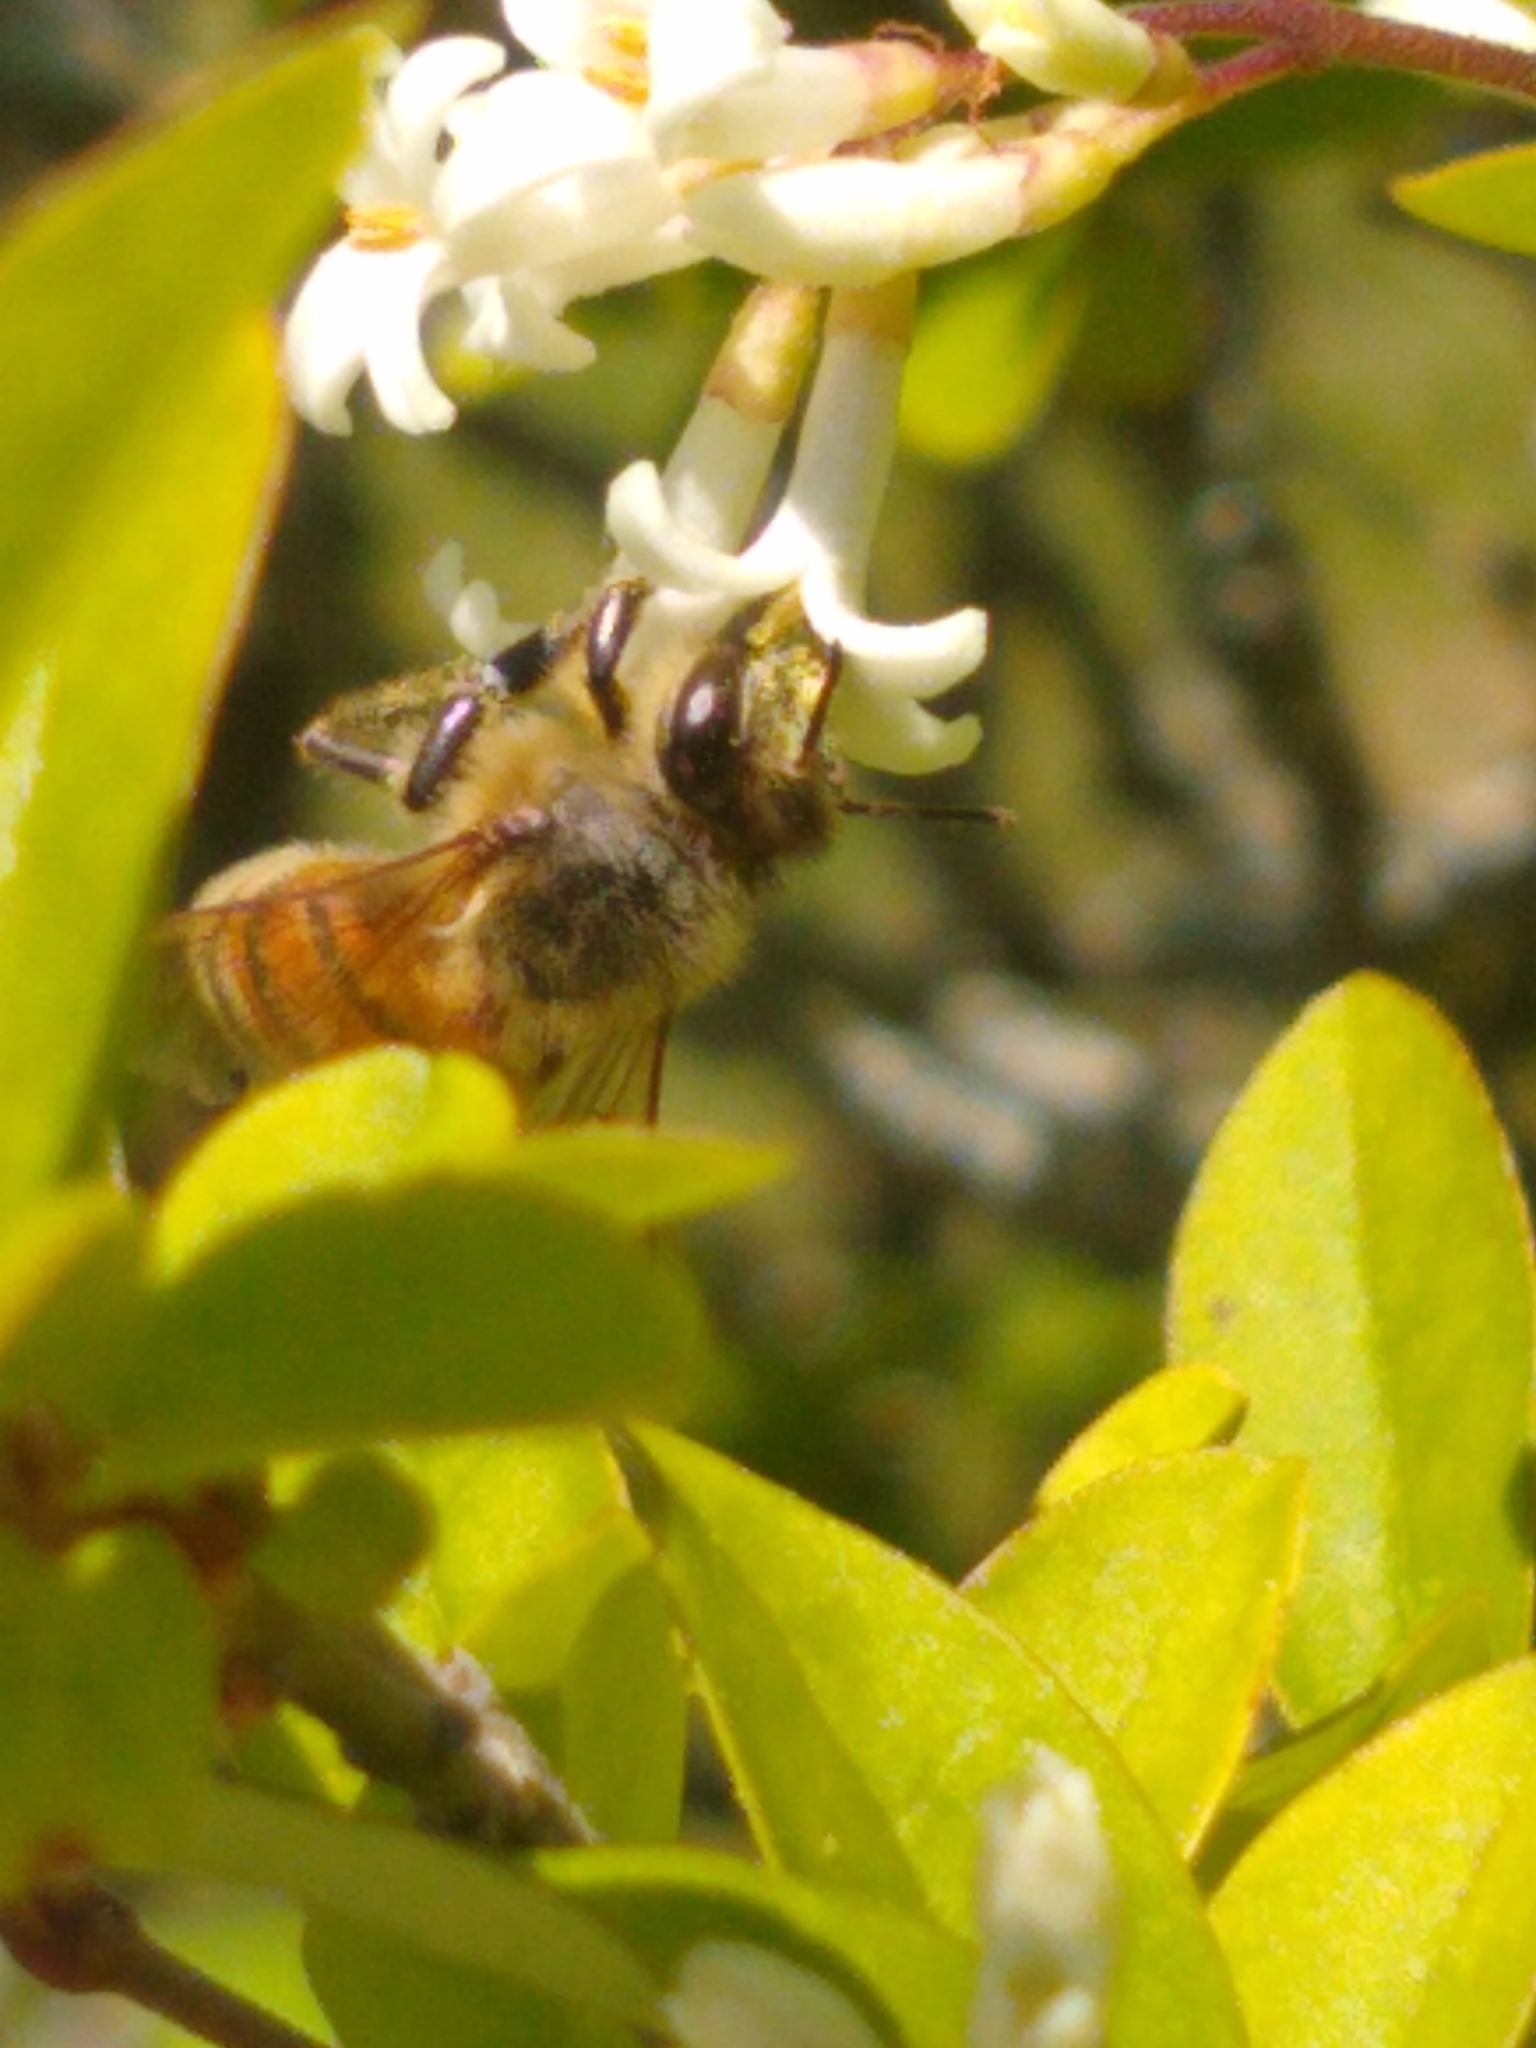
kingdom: Animalia
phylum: Arthropoda
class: Insecta
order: Hymenoptera
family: Apidae
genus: Apis
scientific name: Apis mellifera
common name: Honey bee
